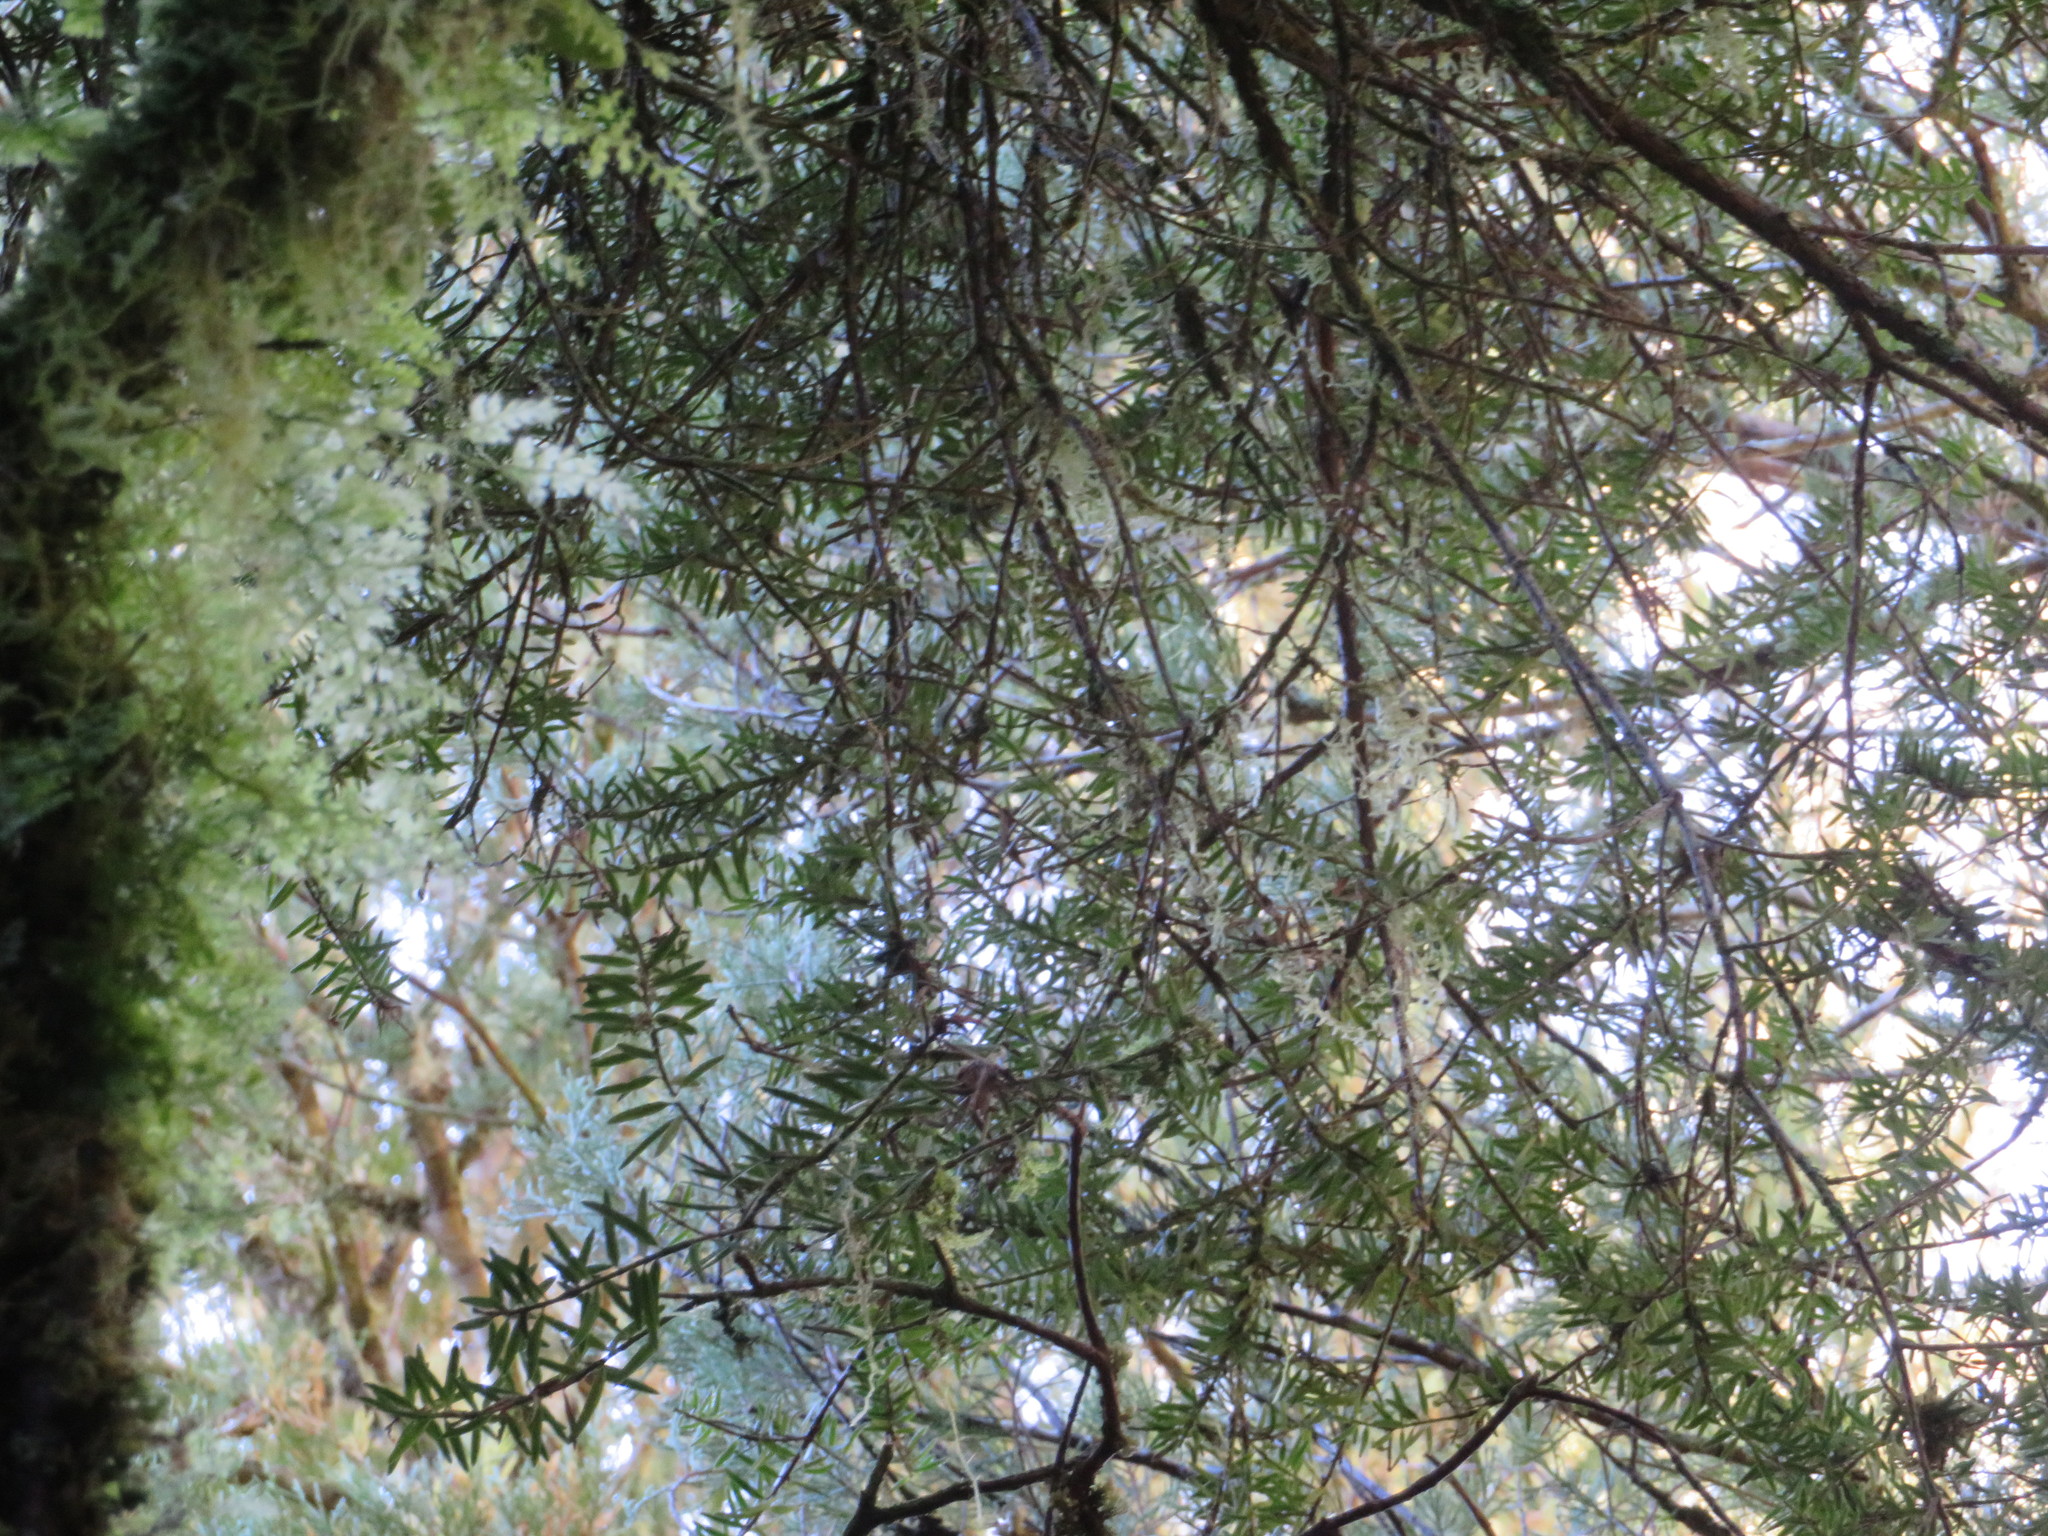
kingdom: Plantae
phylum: Tracheophyta
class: Pinopsida
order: Pinales
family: Podocarpaceae
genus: Podocarpus
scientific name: Podocarpus totara
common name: Totara
